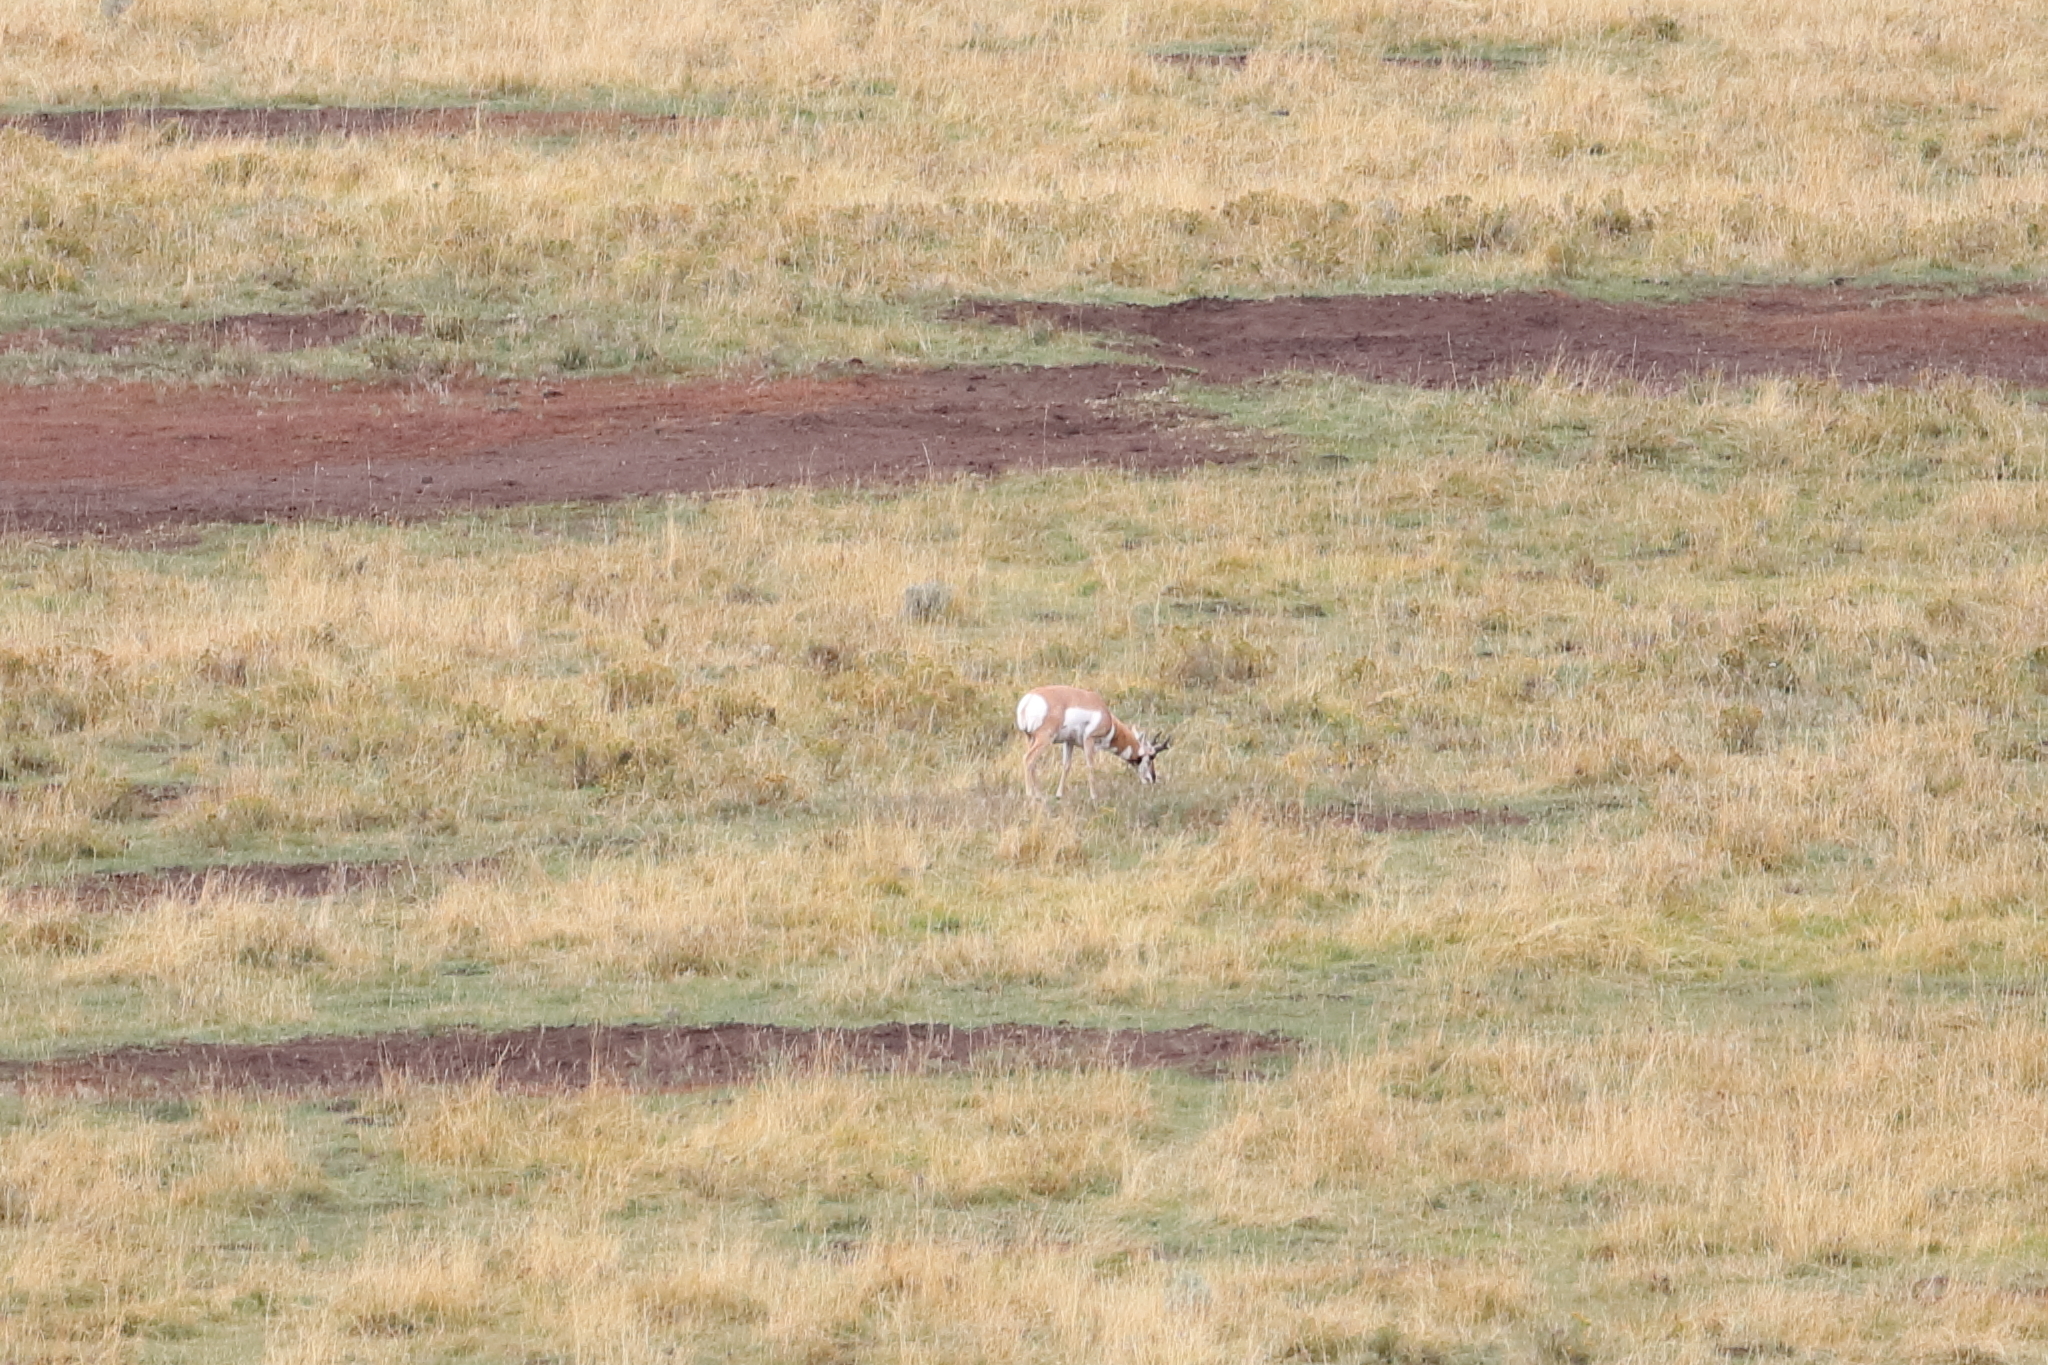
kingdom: Animalia
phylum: Chordata
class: Mammalia
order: Artiodactyla
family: Antilocapridae
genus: Antilocapra
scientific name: Antilocapra americana
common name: Pronghorn
